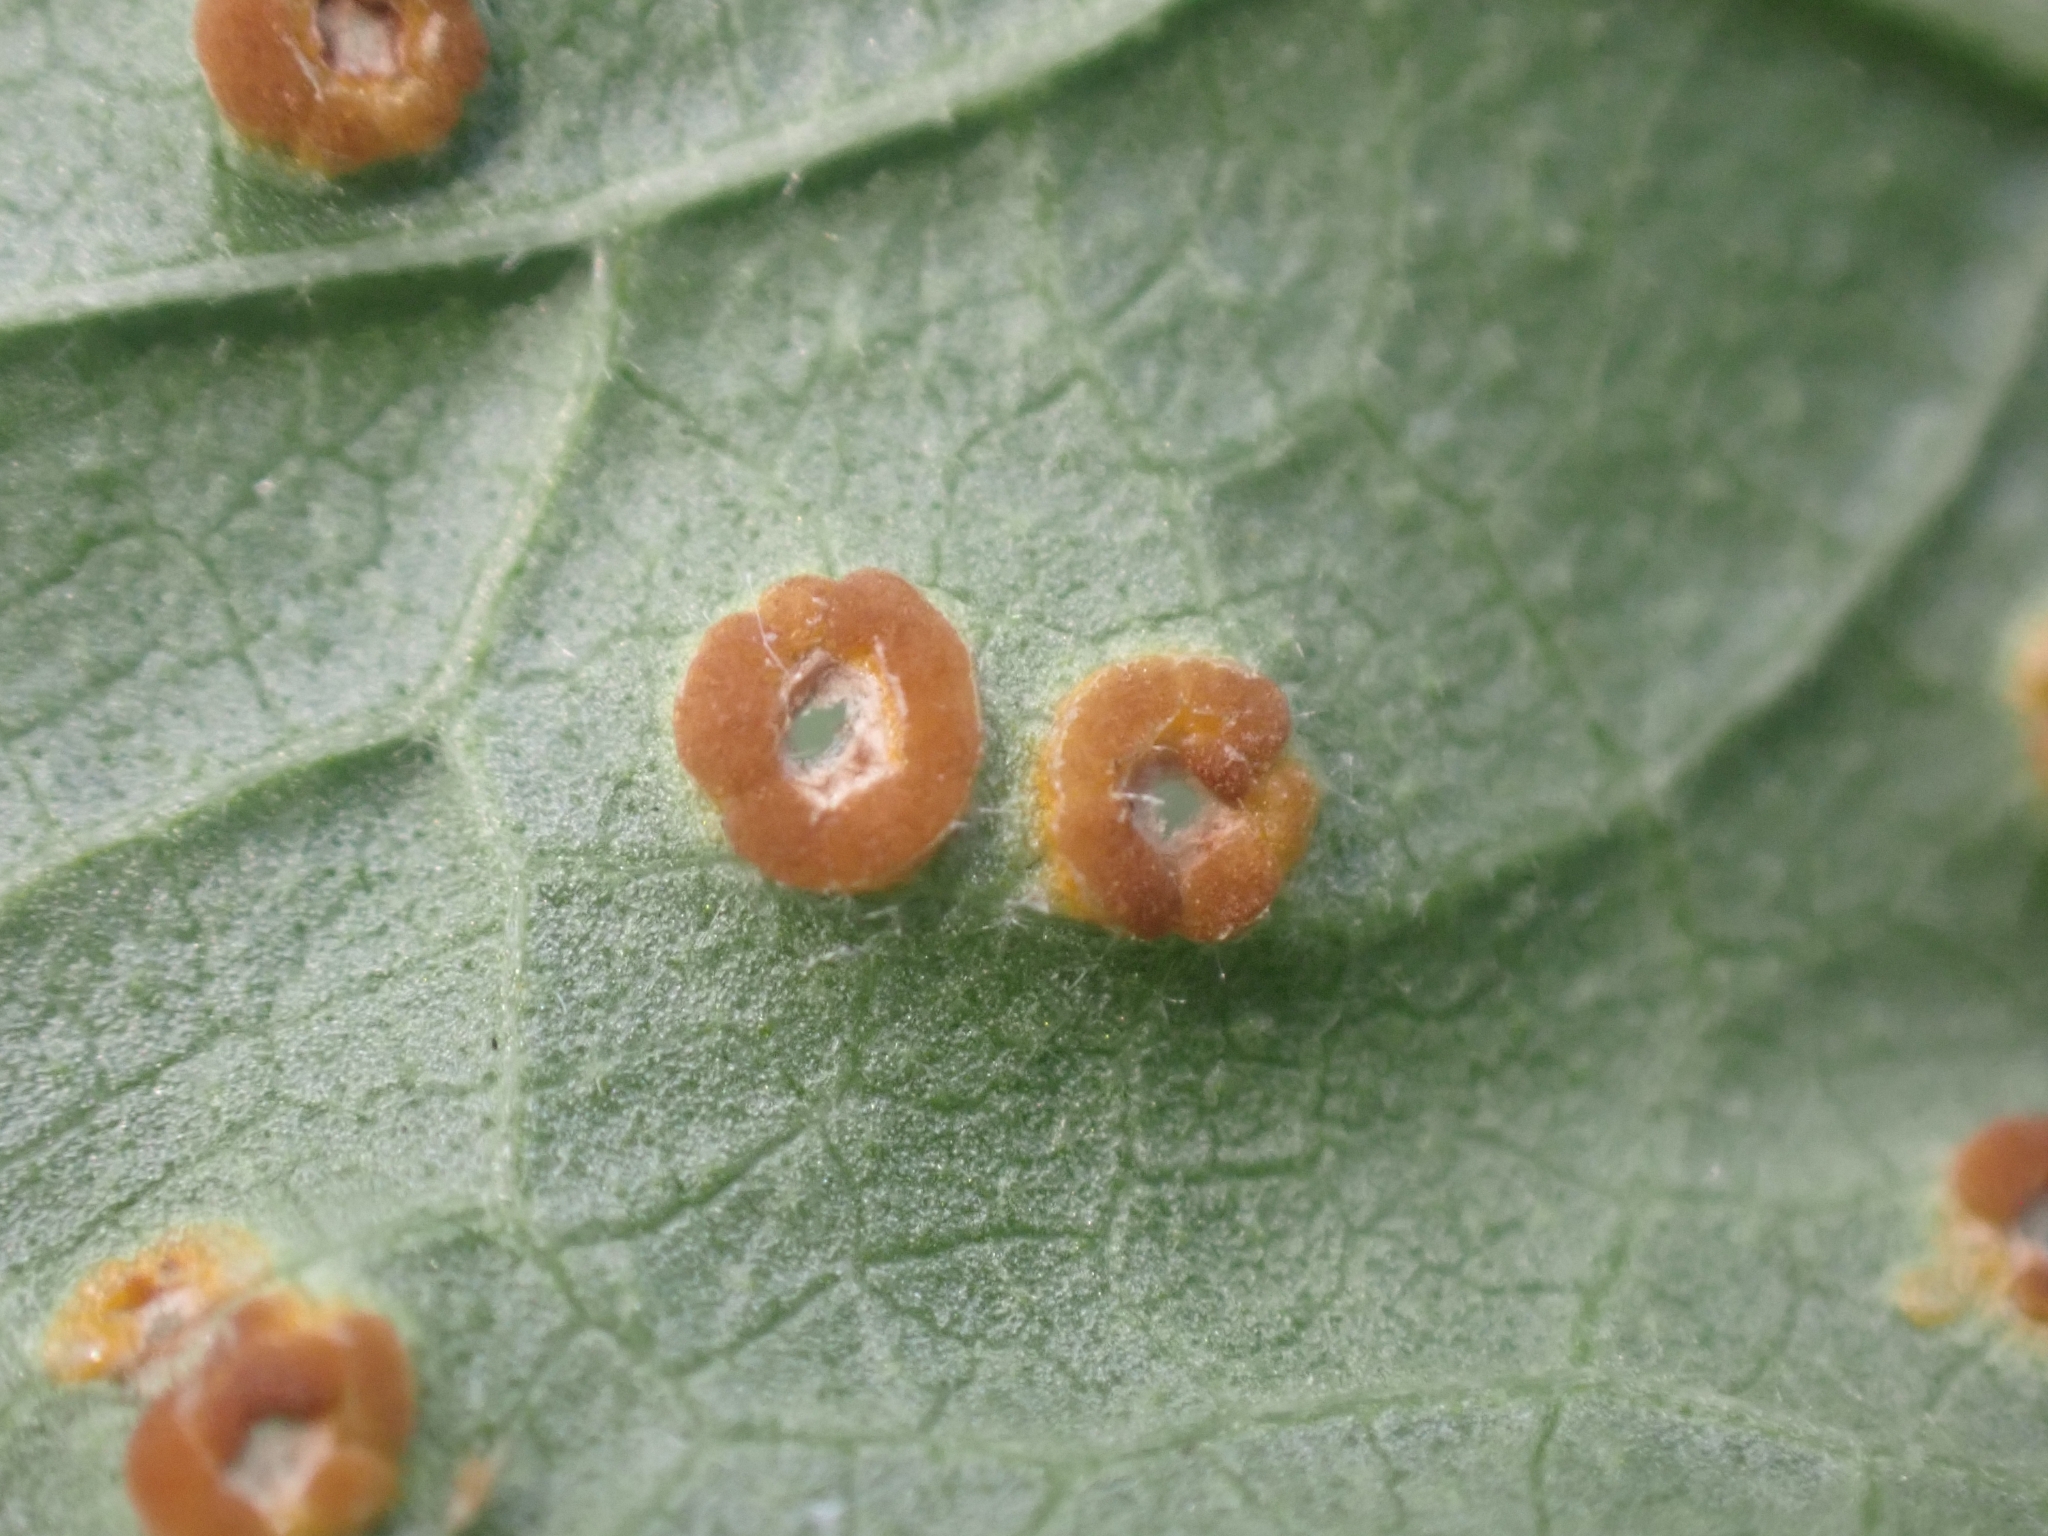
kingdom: Fungi
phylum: Basidiomycota
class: Pucciniomycetes
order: Pucciniales
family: Pucciniaceae
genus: Puccinia
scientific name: Puccinia malvacearum
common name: Hollyhock rust
